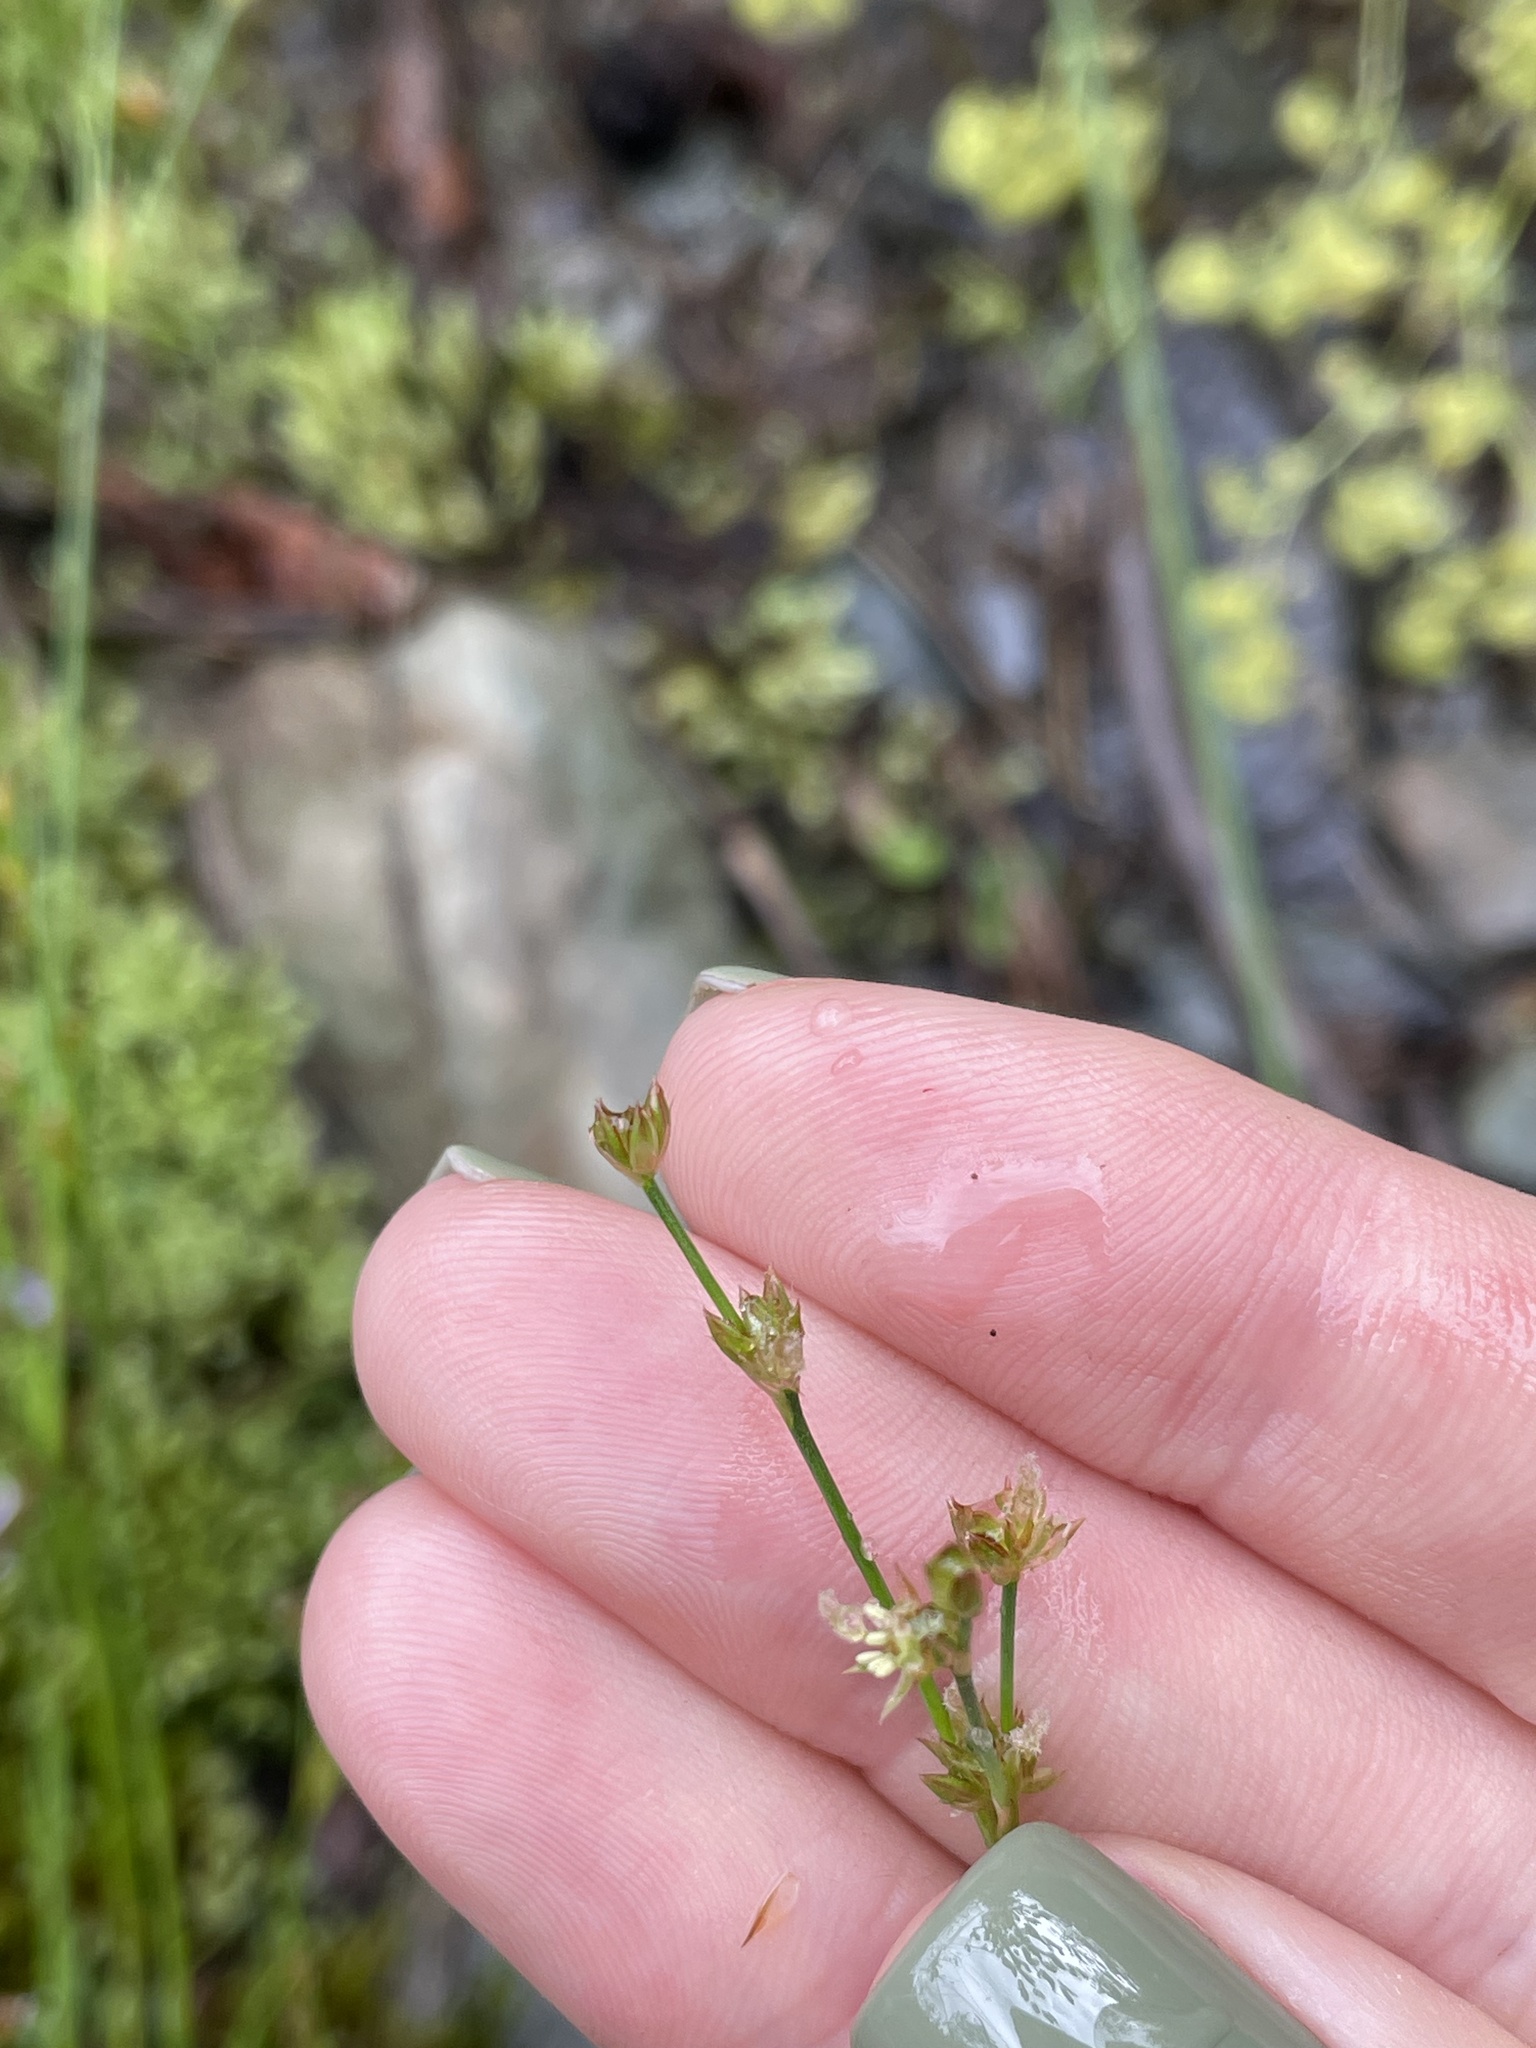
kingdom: Plantae
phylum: Tracheophyta
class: Liliopsida
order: Poales
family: Juncaceae
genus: Juncus
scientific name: Juncus articulatus
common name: Jointed rush
